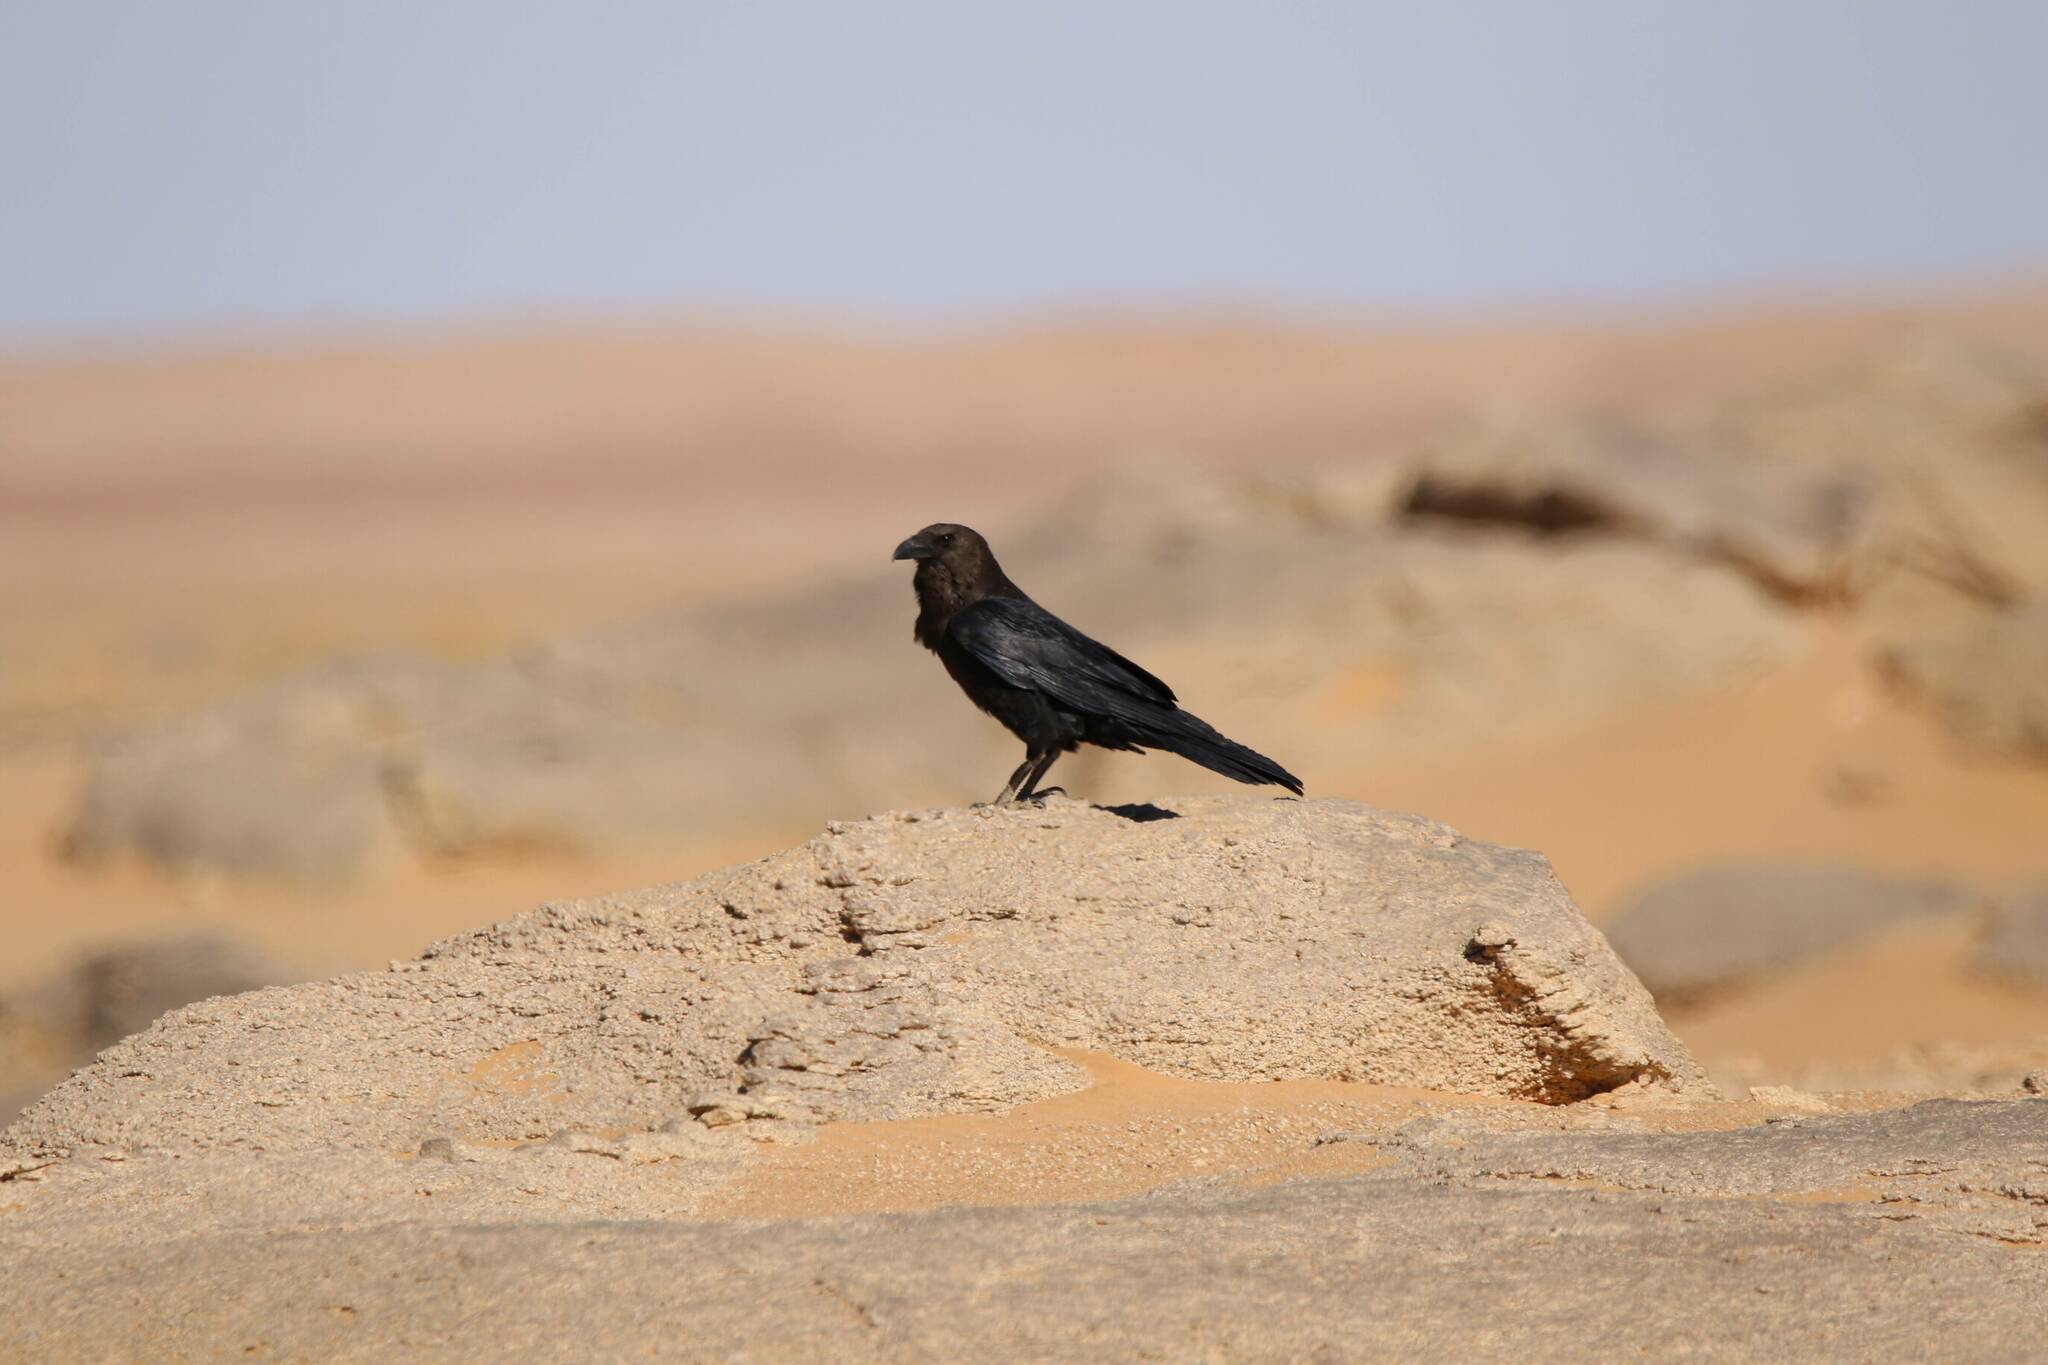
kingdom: Animalia
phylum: Chordata
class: Aves
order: Passeriformes
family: Corvidae
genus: Corvus
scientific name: Corvus ruficollis
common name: Brown-necked raven
